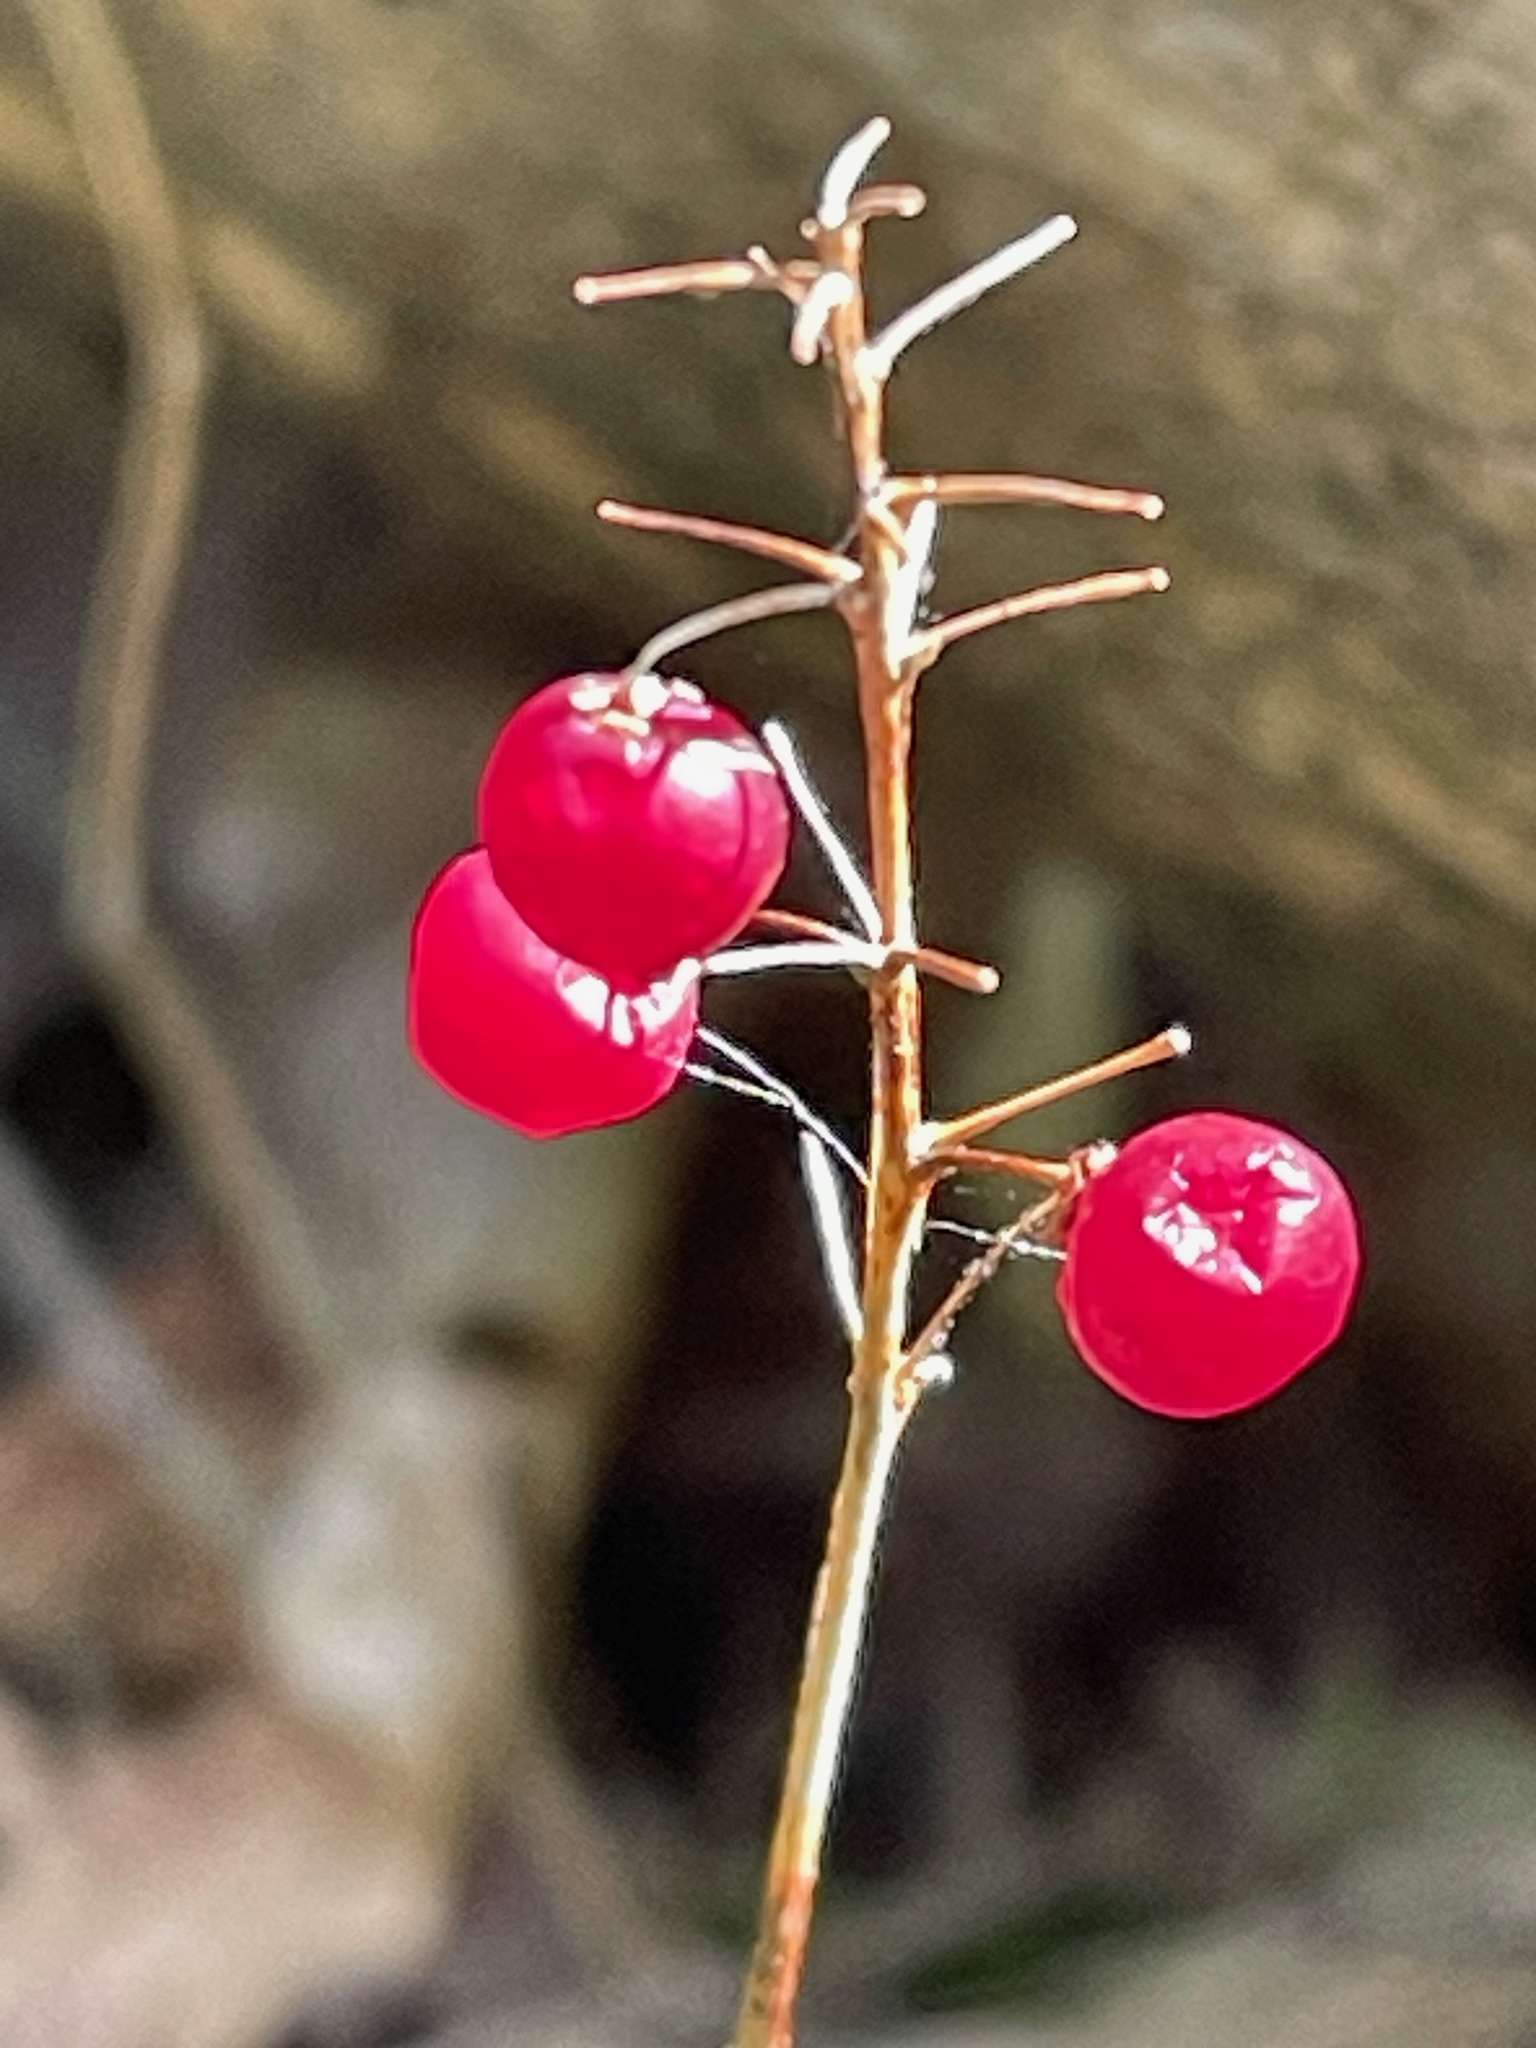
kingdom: Plantae
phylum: Tracheophyta
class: Liliopsida
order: Asparagales
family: Asparagaceae
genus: Maianthemum
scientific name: Maianthemum canadense
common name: False lily-of-the-valley
